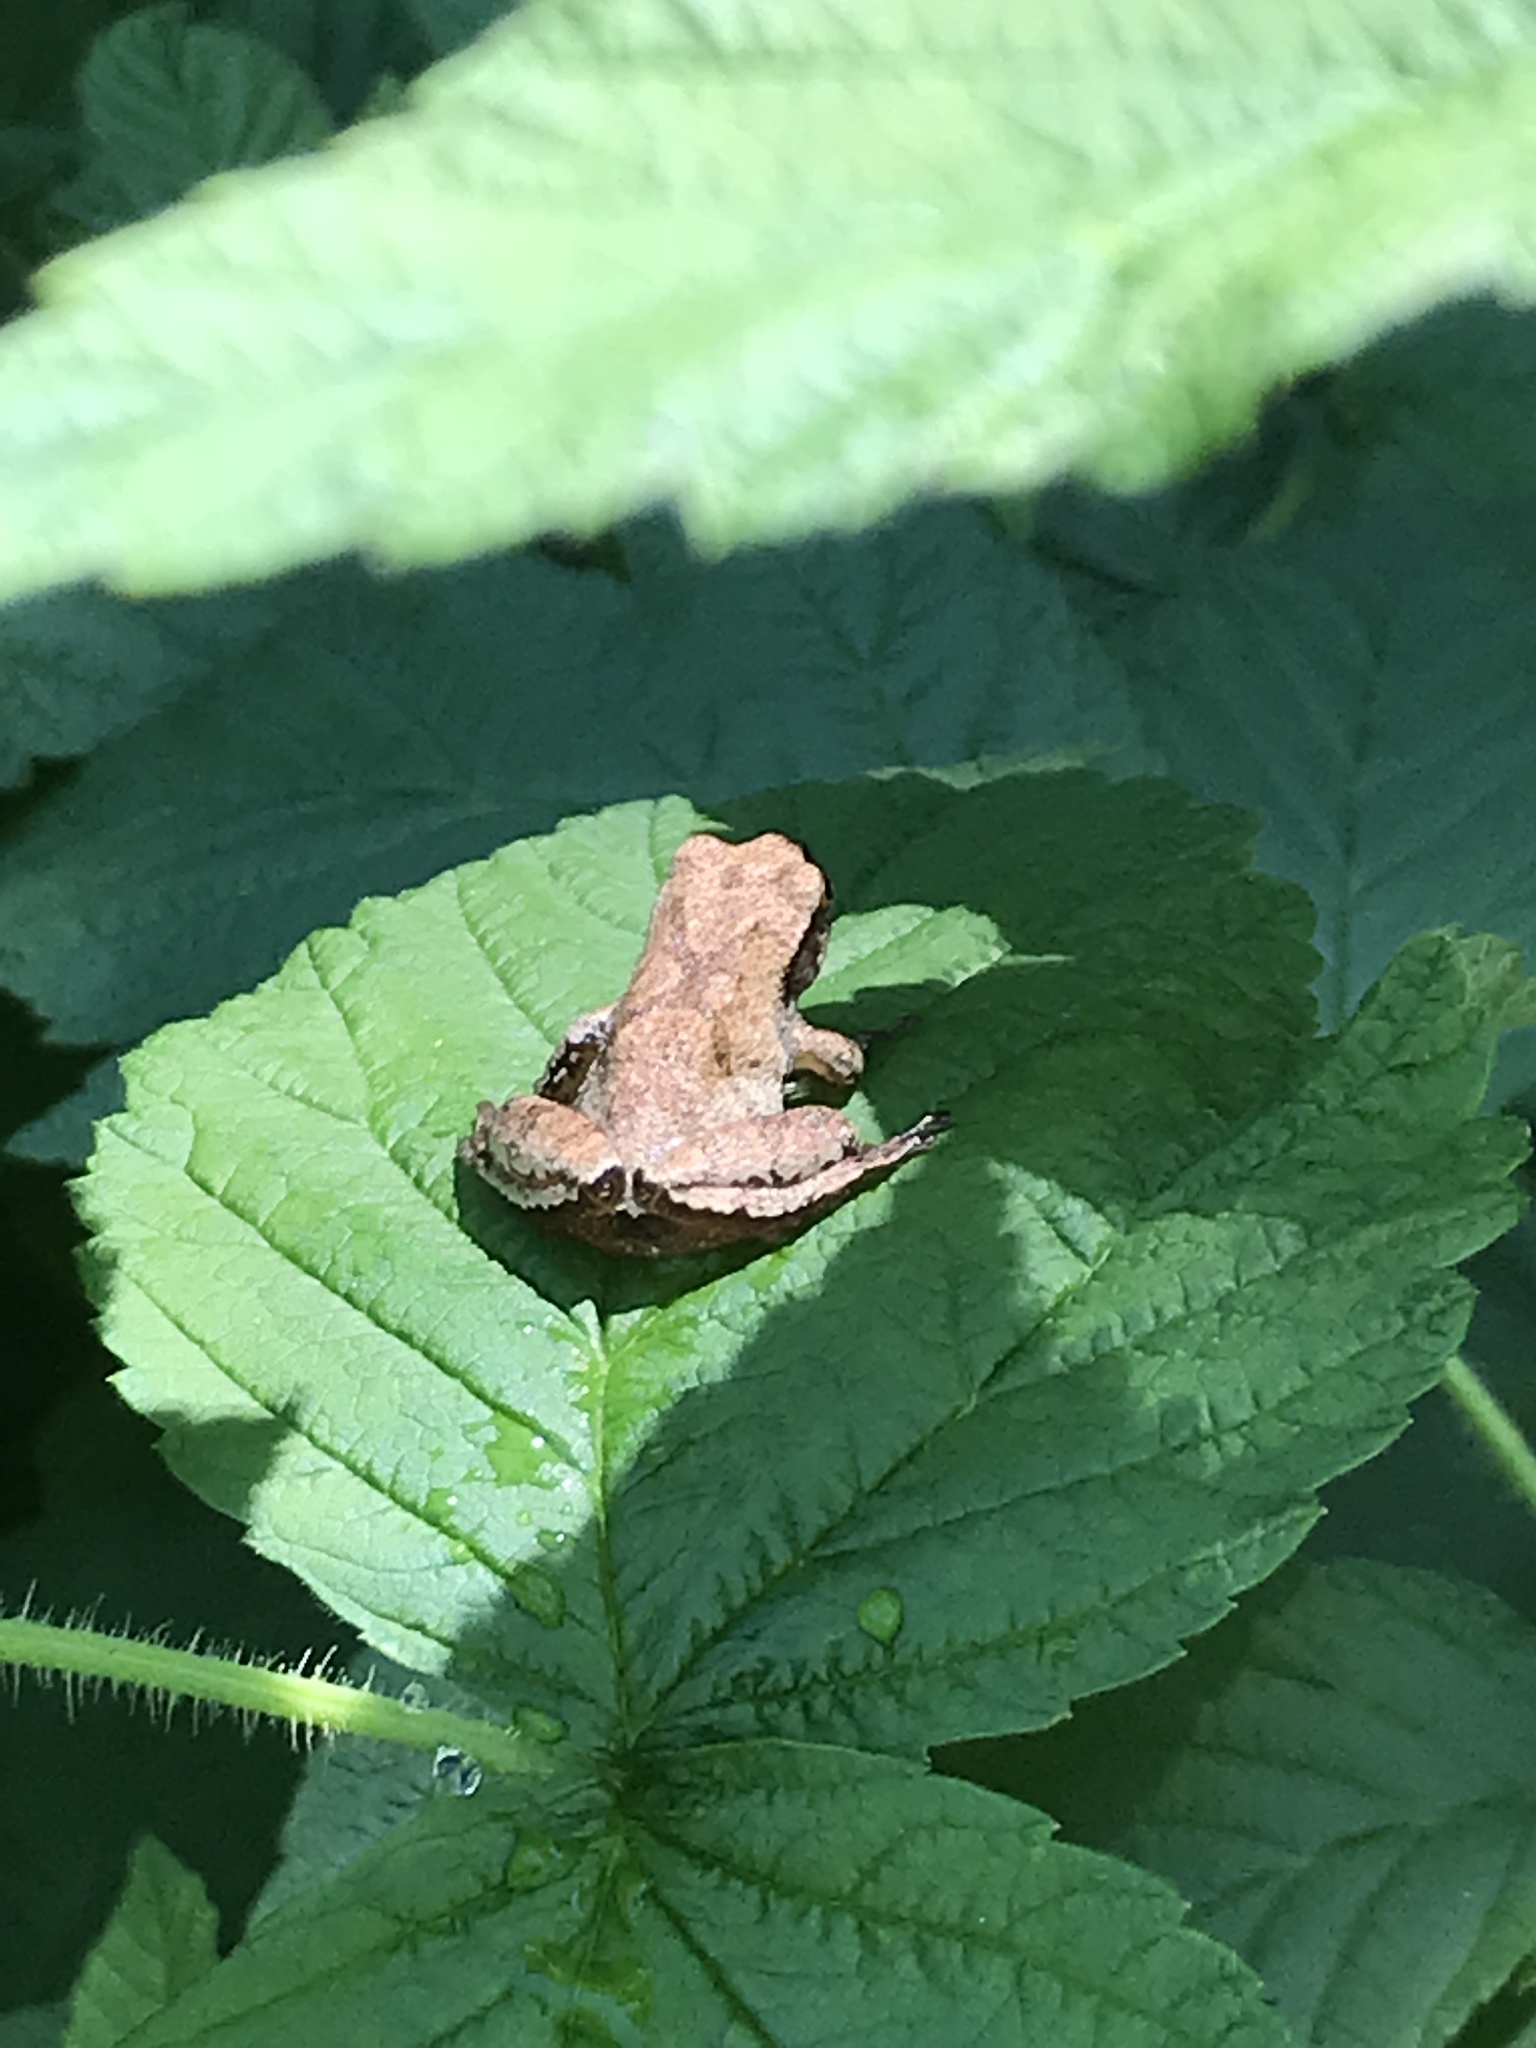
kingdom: Animalia
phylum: Chordata
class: Amphibia
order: Anura
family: Hylidae
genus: Pseudacris
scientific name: Pseudacris crucifer
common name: Spring peeper
